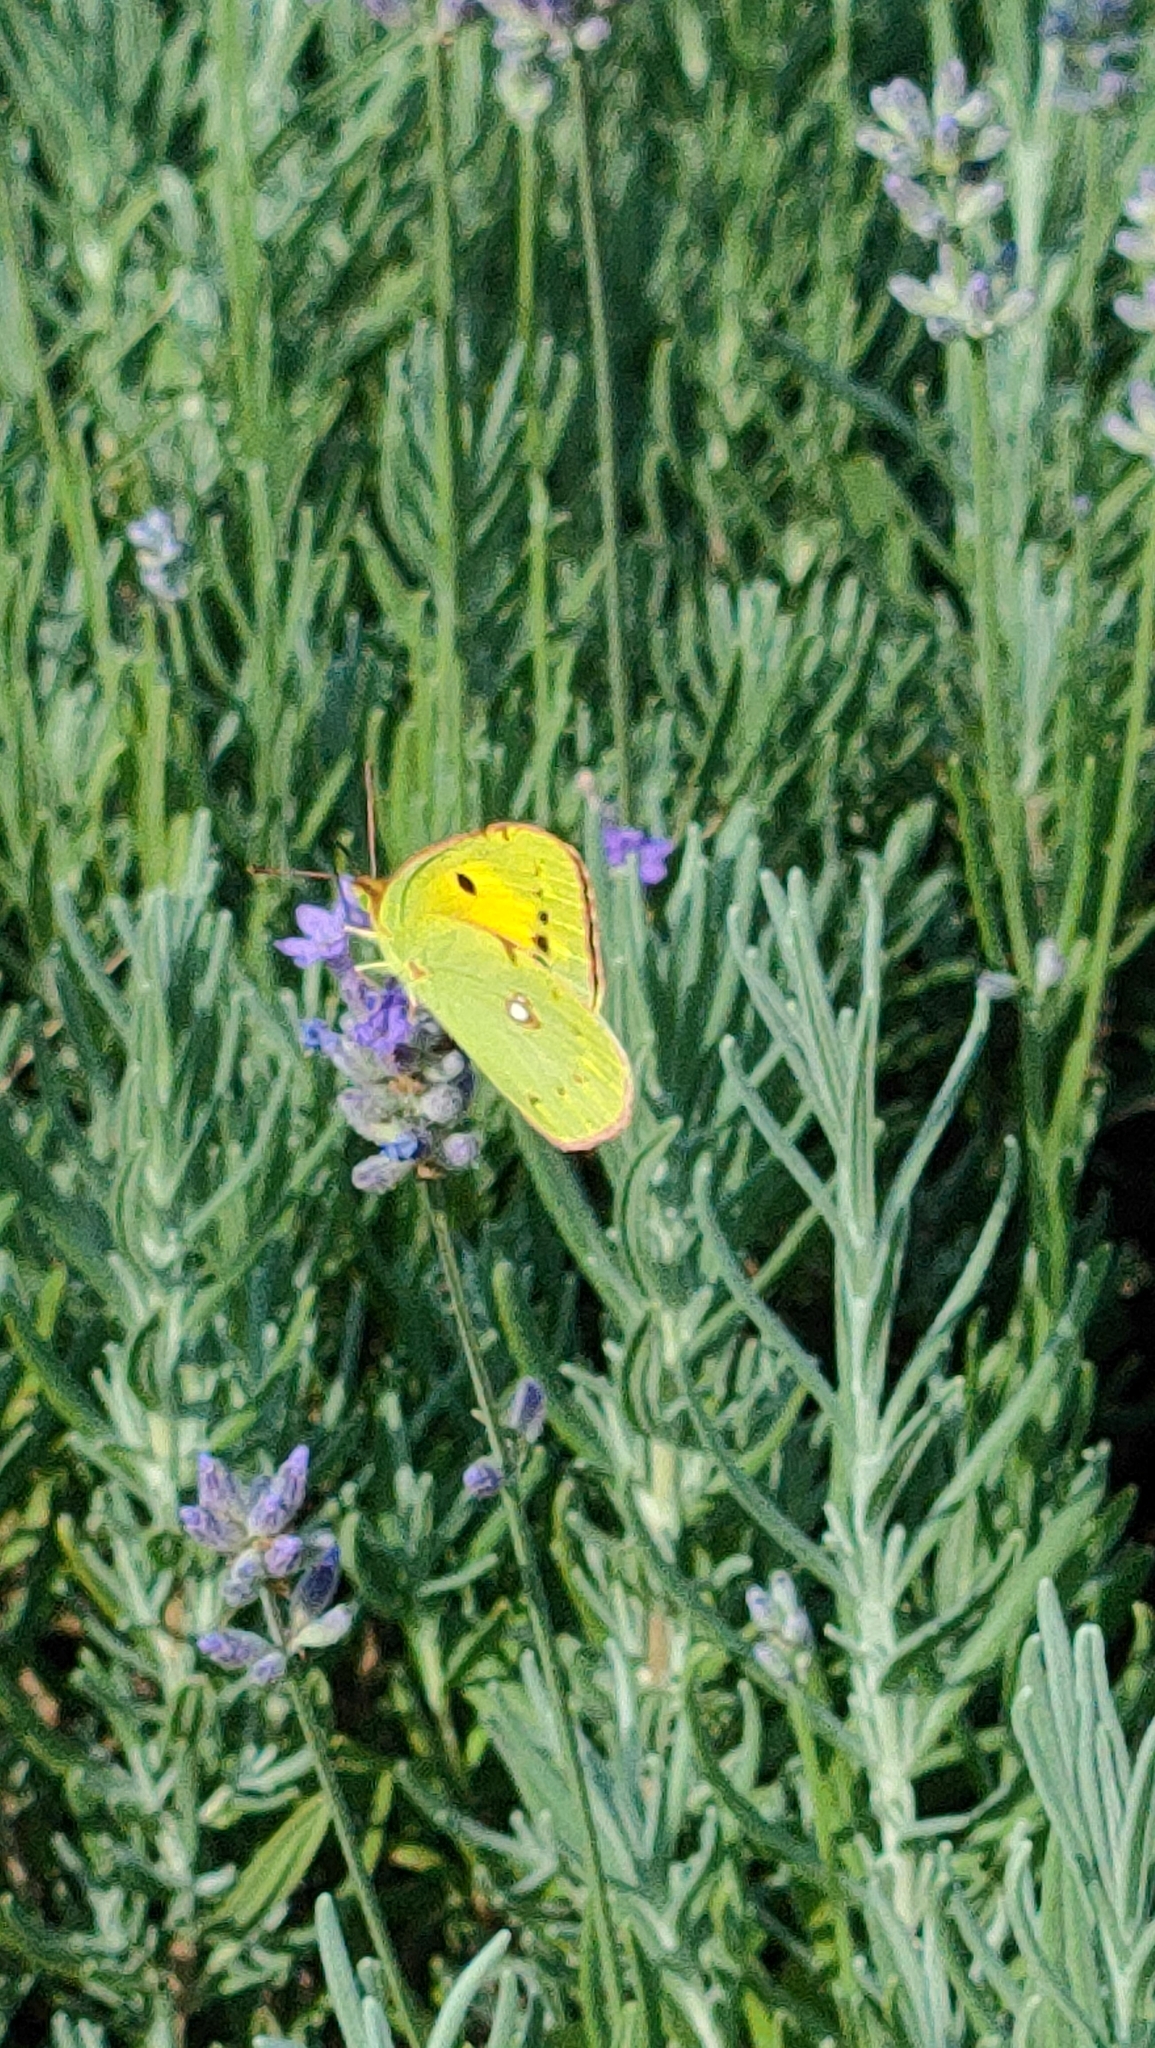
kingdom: Animalia
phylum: Arthropoda
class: Insecta
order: Lepidoptera
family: Pieridae
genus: Colias
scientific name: Colias croceus
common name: Clouded yellow
